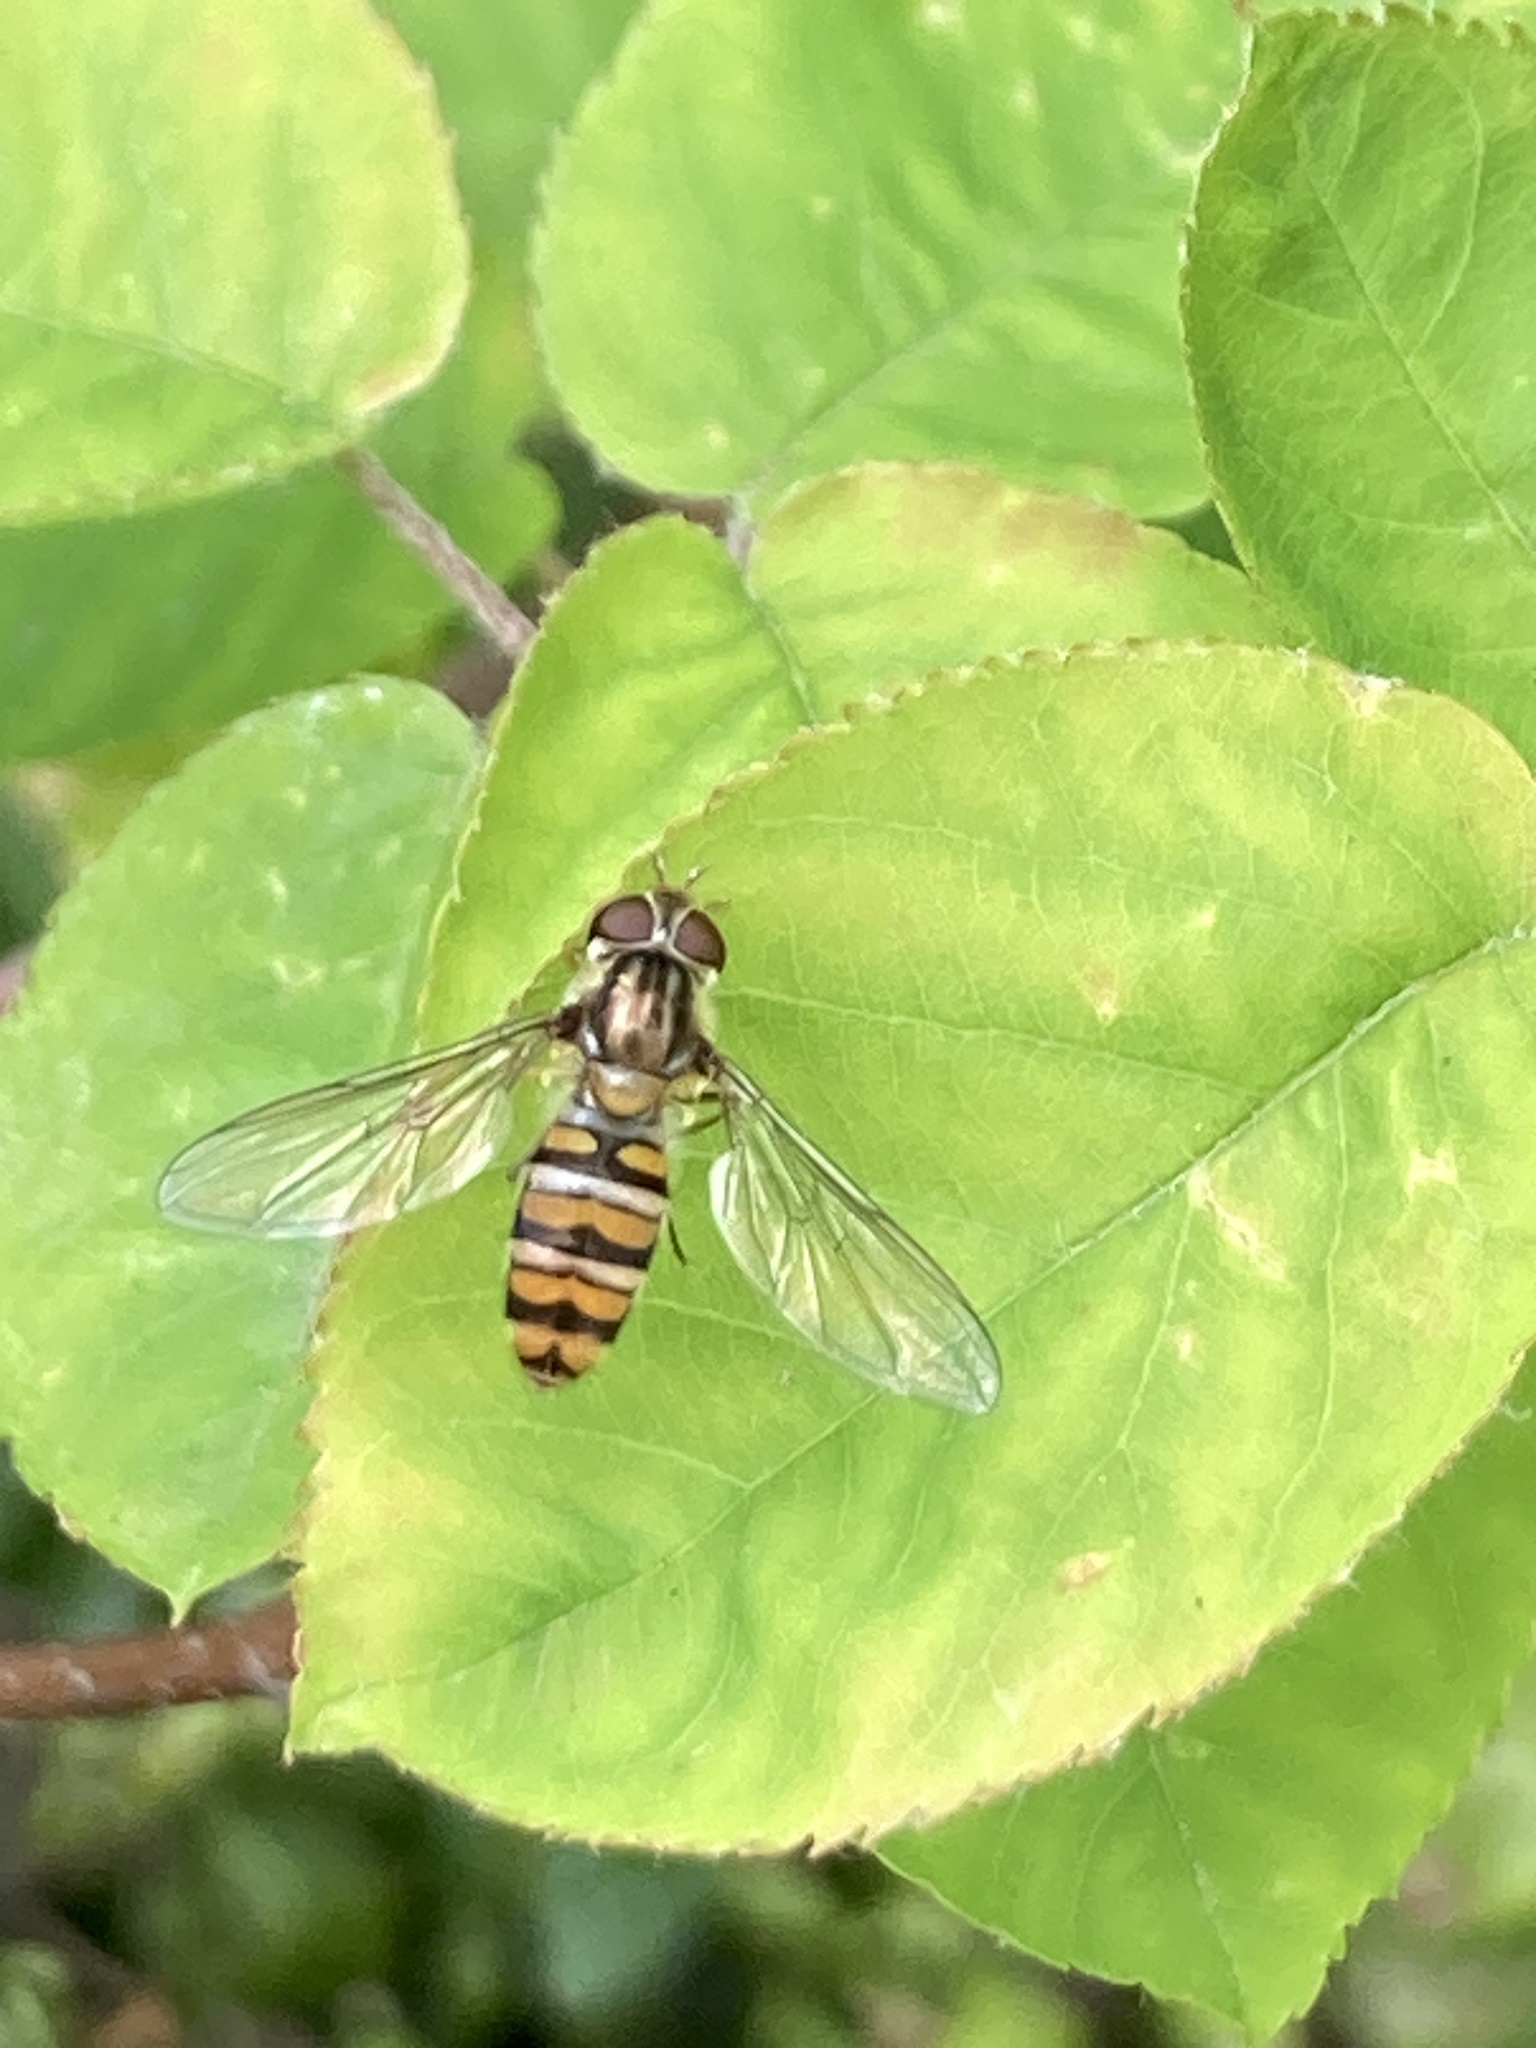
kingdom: Animalia
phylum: Arthropoda
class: Insecta
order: Diptera
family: Syrphidae
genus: Episyrphus
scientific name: Episyrphus balteatus
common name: Marmalade hoverfly
